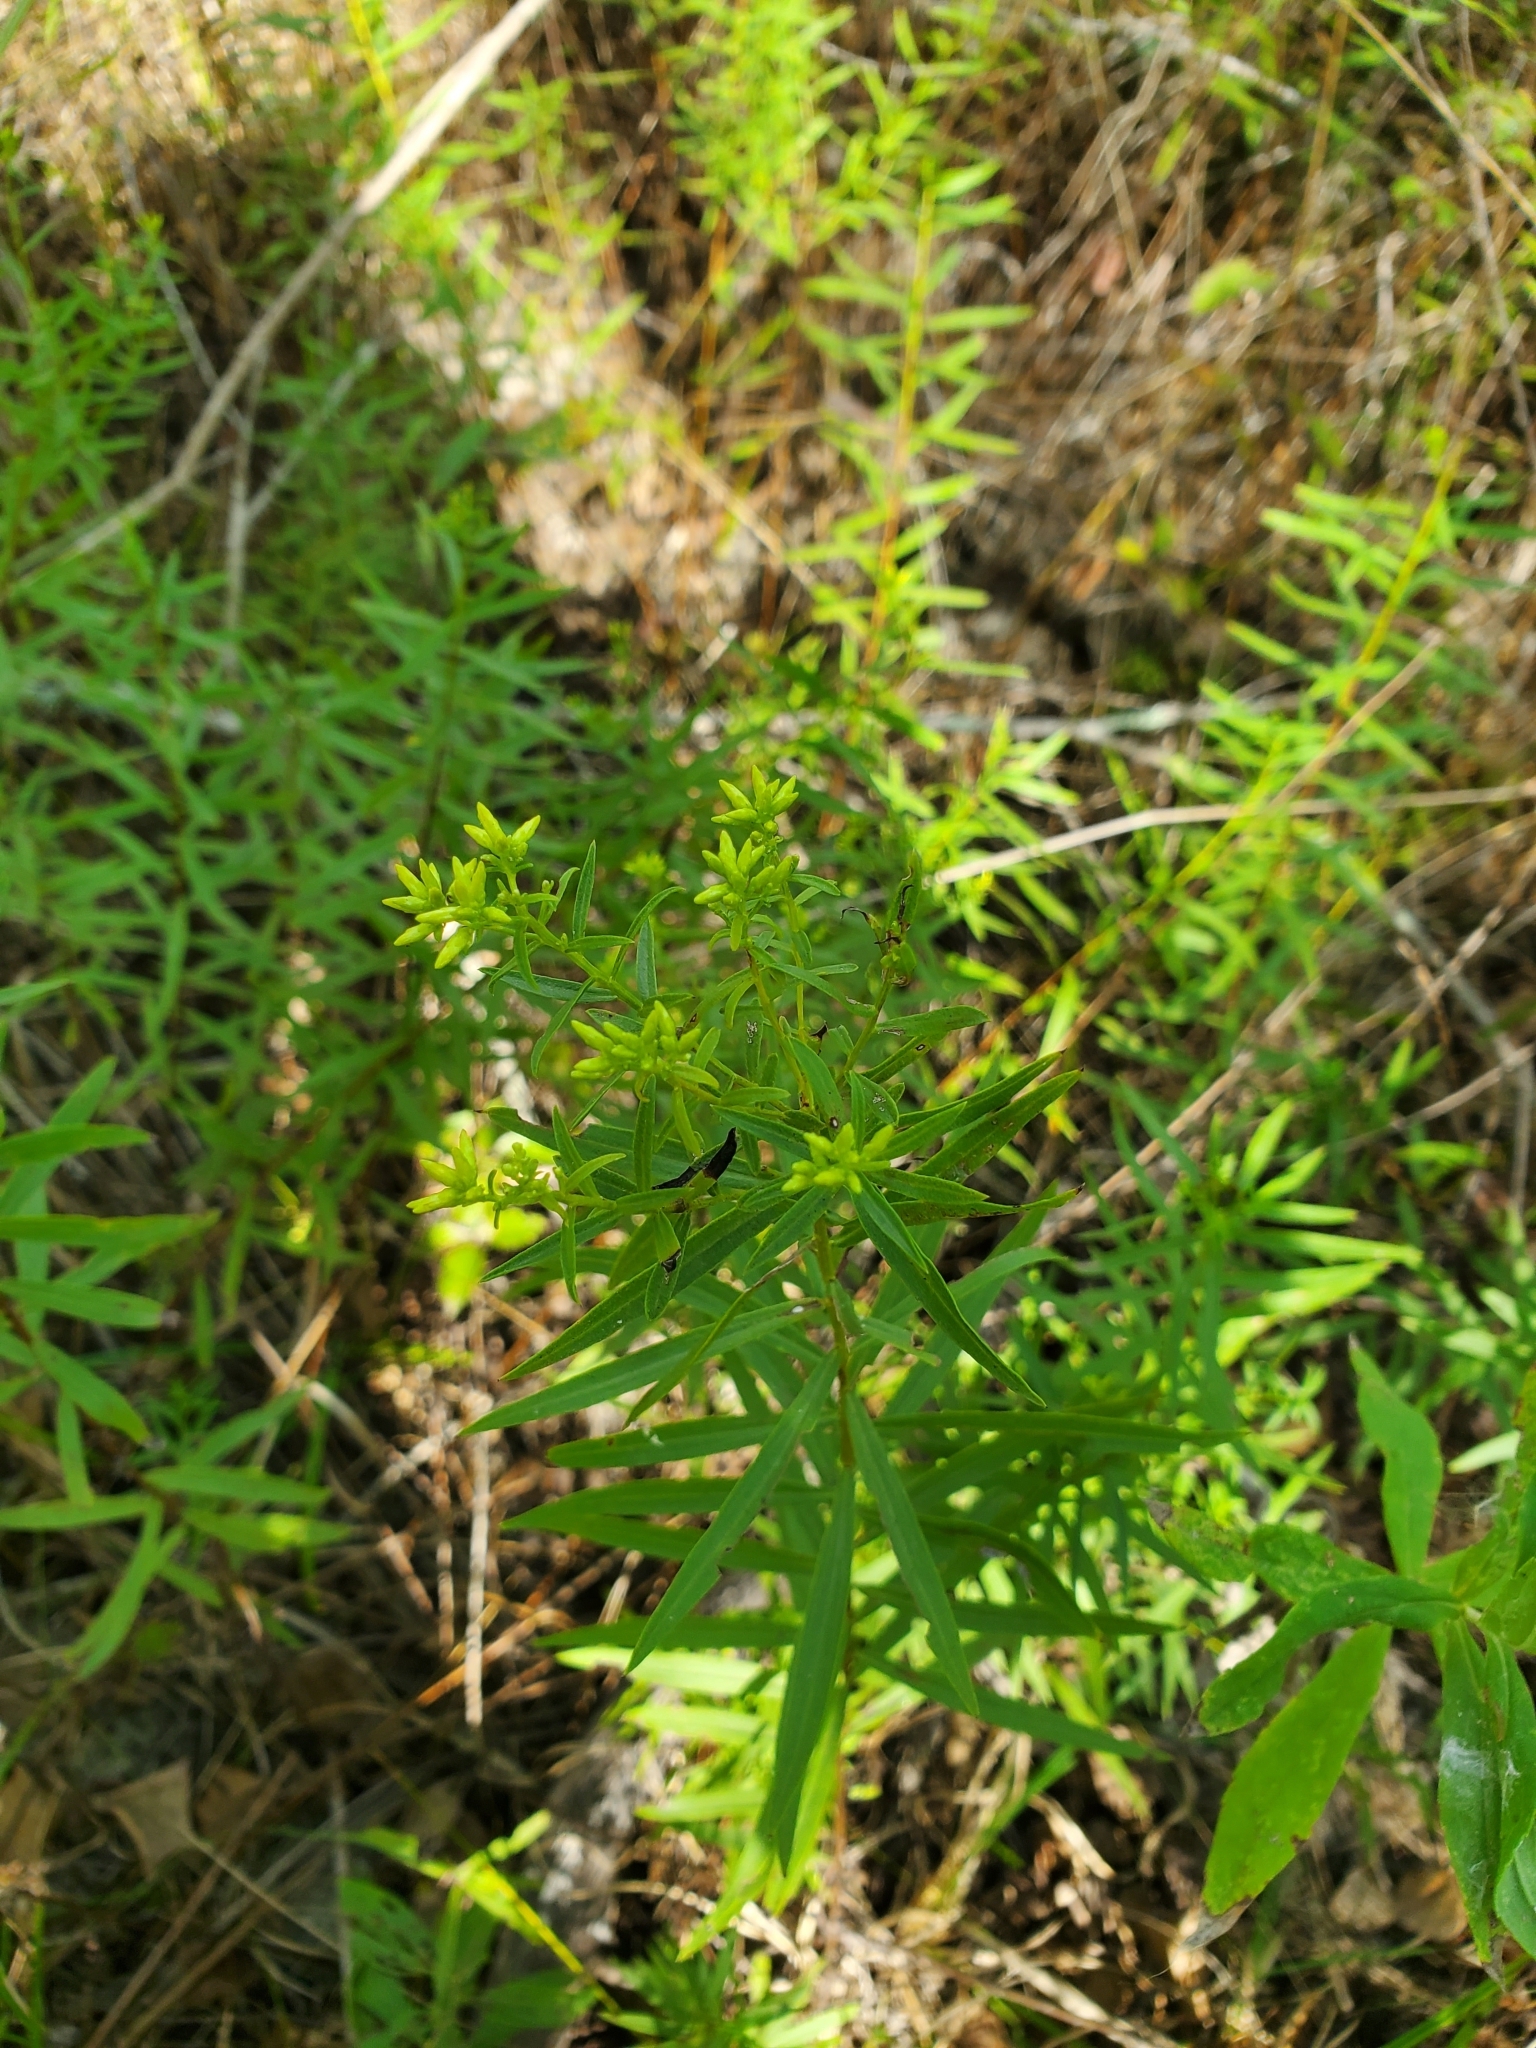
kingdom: Plantae
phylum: Tracheophyta
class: Magnoliopsida
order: Asterales
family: Asteraceae
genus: Euthamia
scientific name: Euthamia leptocephala
